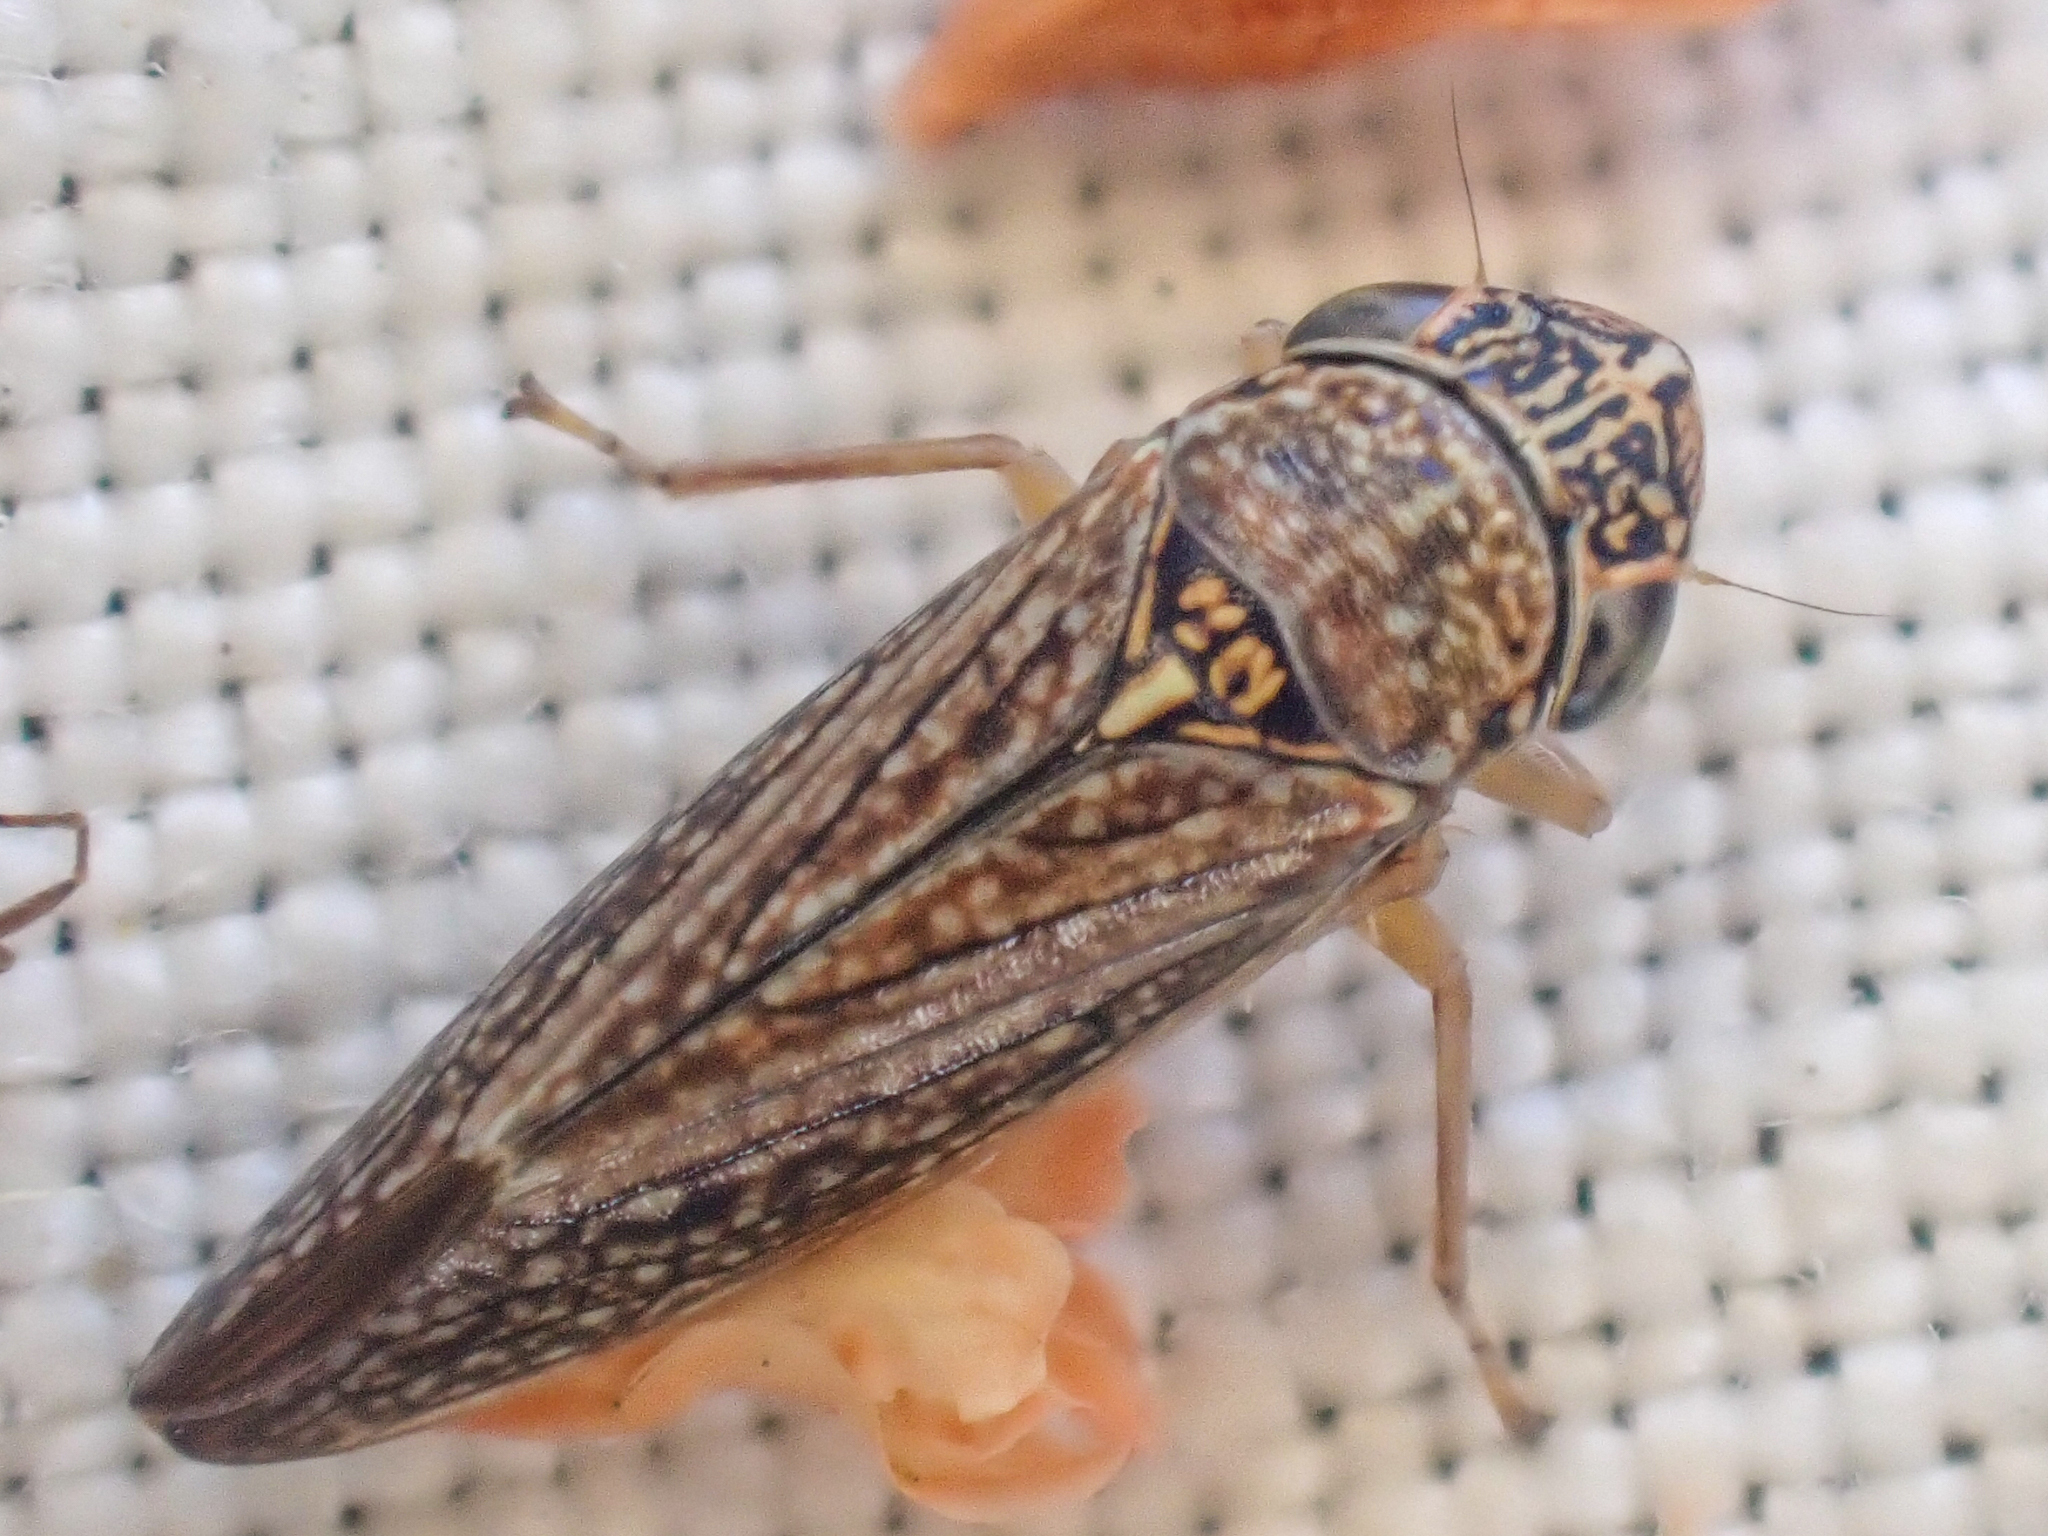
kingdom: Animalia
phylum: Arthropoda
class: Insecta
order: Hemiptera
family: Cicadellidae
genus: Graphocephala
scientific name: Graphocephala confluens
